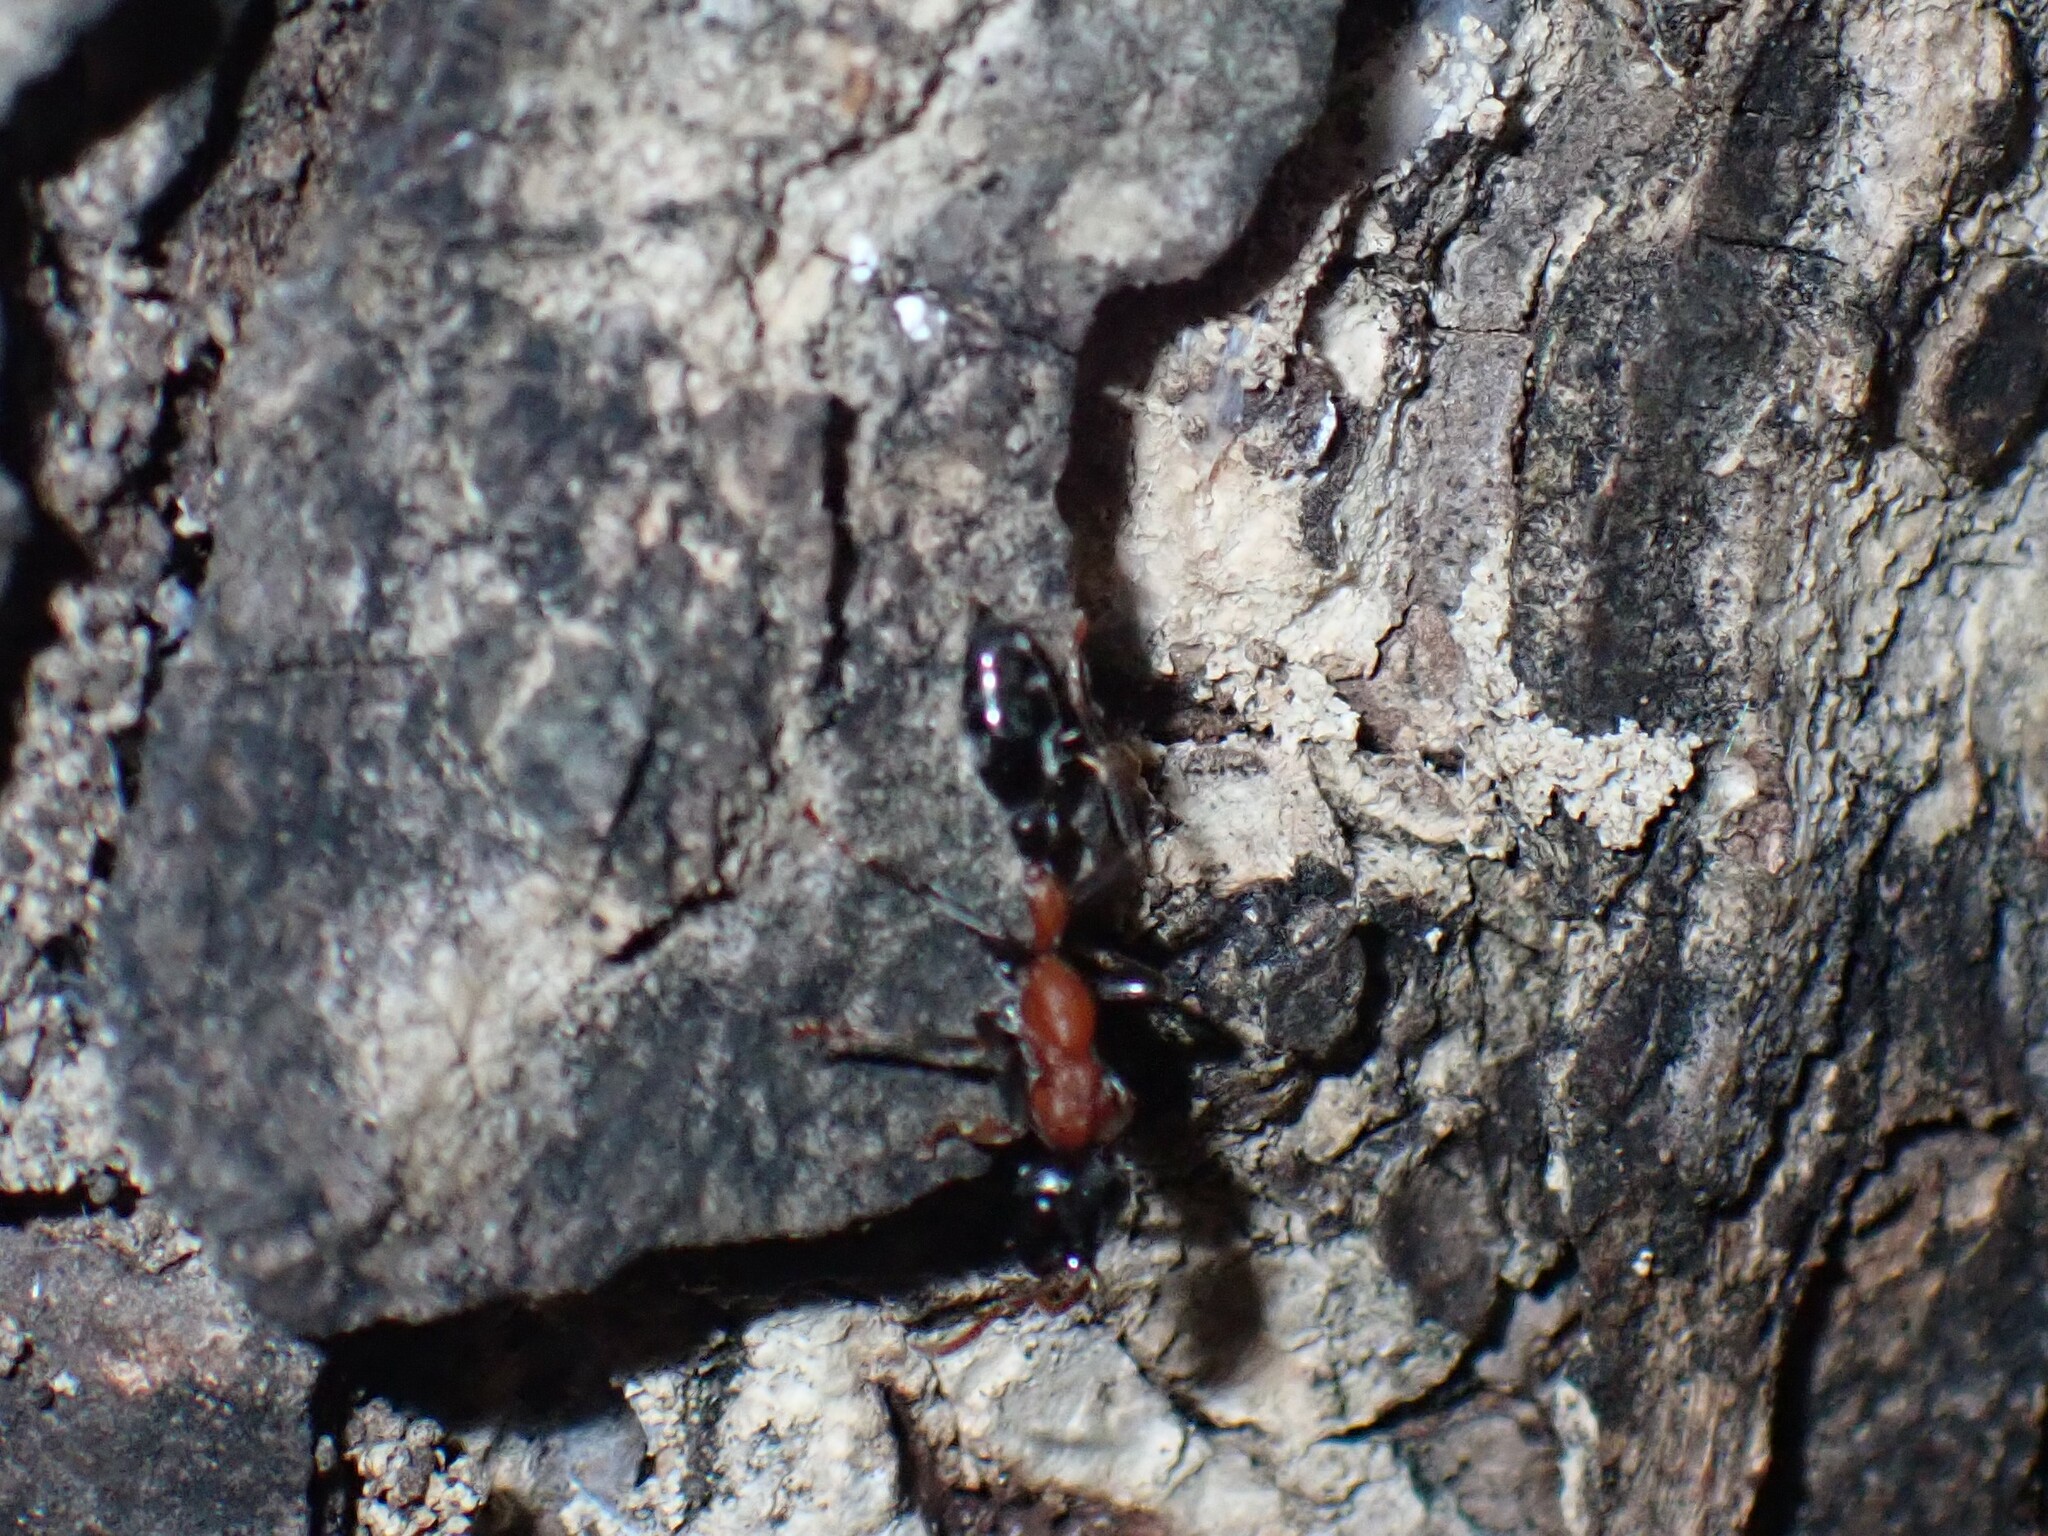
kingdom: Animalia
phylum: Arthropoda
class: Insecta
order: Hymenoptera
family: Formicidae
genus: Tetraponera
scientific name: Tetraponera rufonigra
